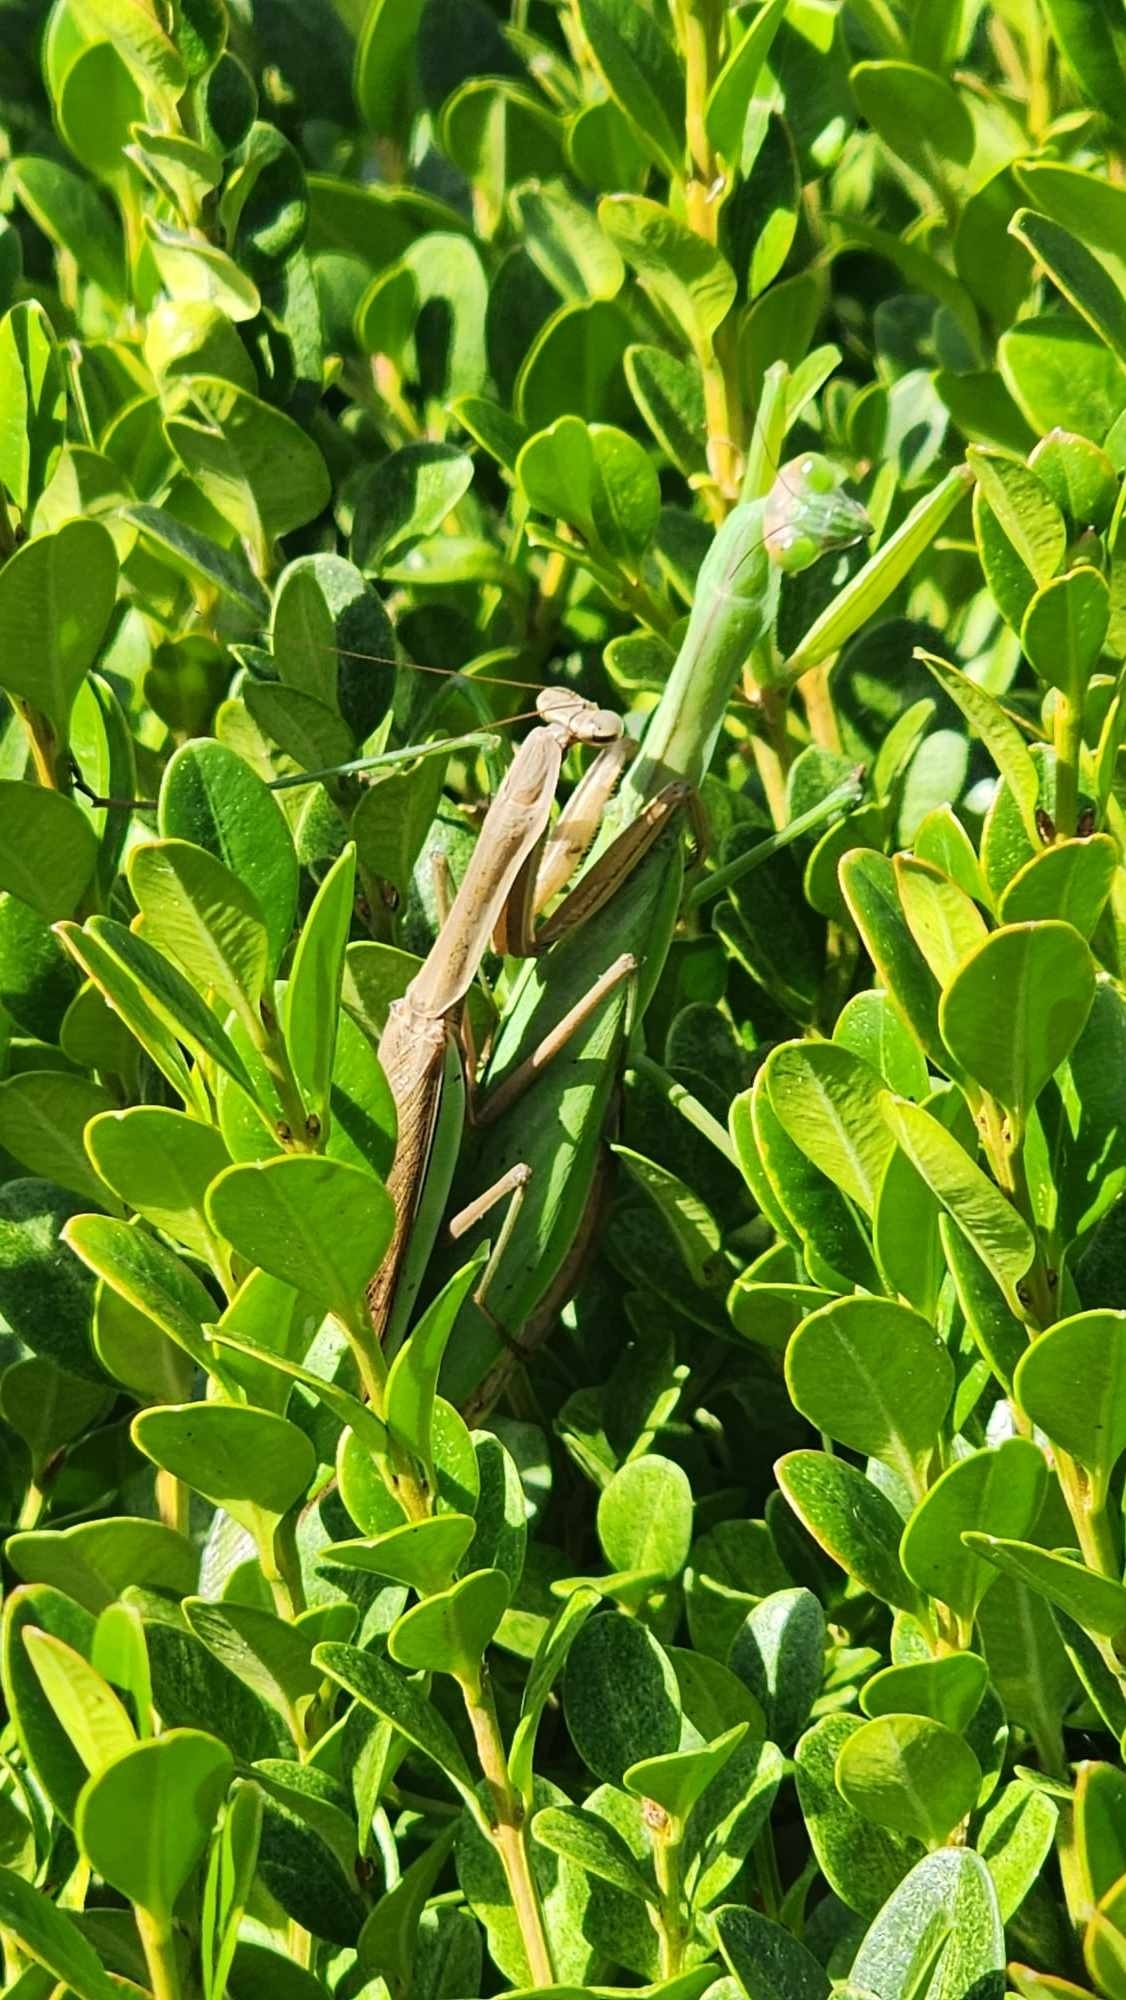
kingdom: Animalia
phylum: Arthropoda
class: Insecta
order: Mantodea
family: Mantidae
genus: Tenodera
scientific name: Tenodera sinensis
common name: Chinese mantis
